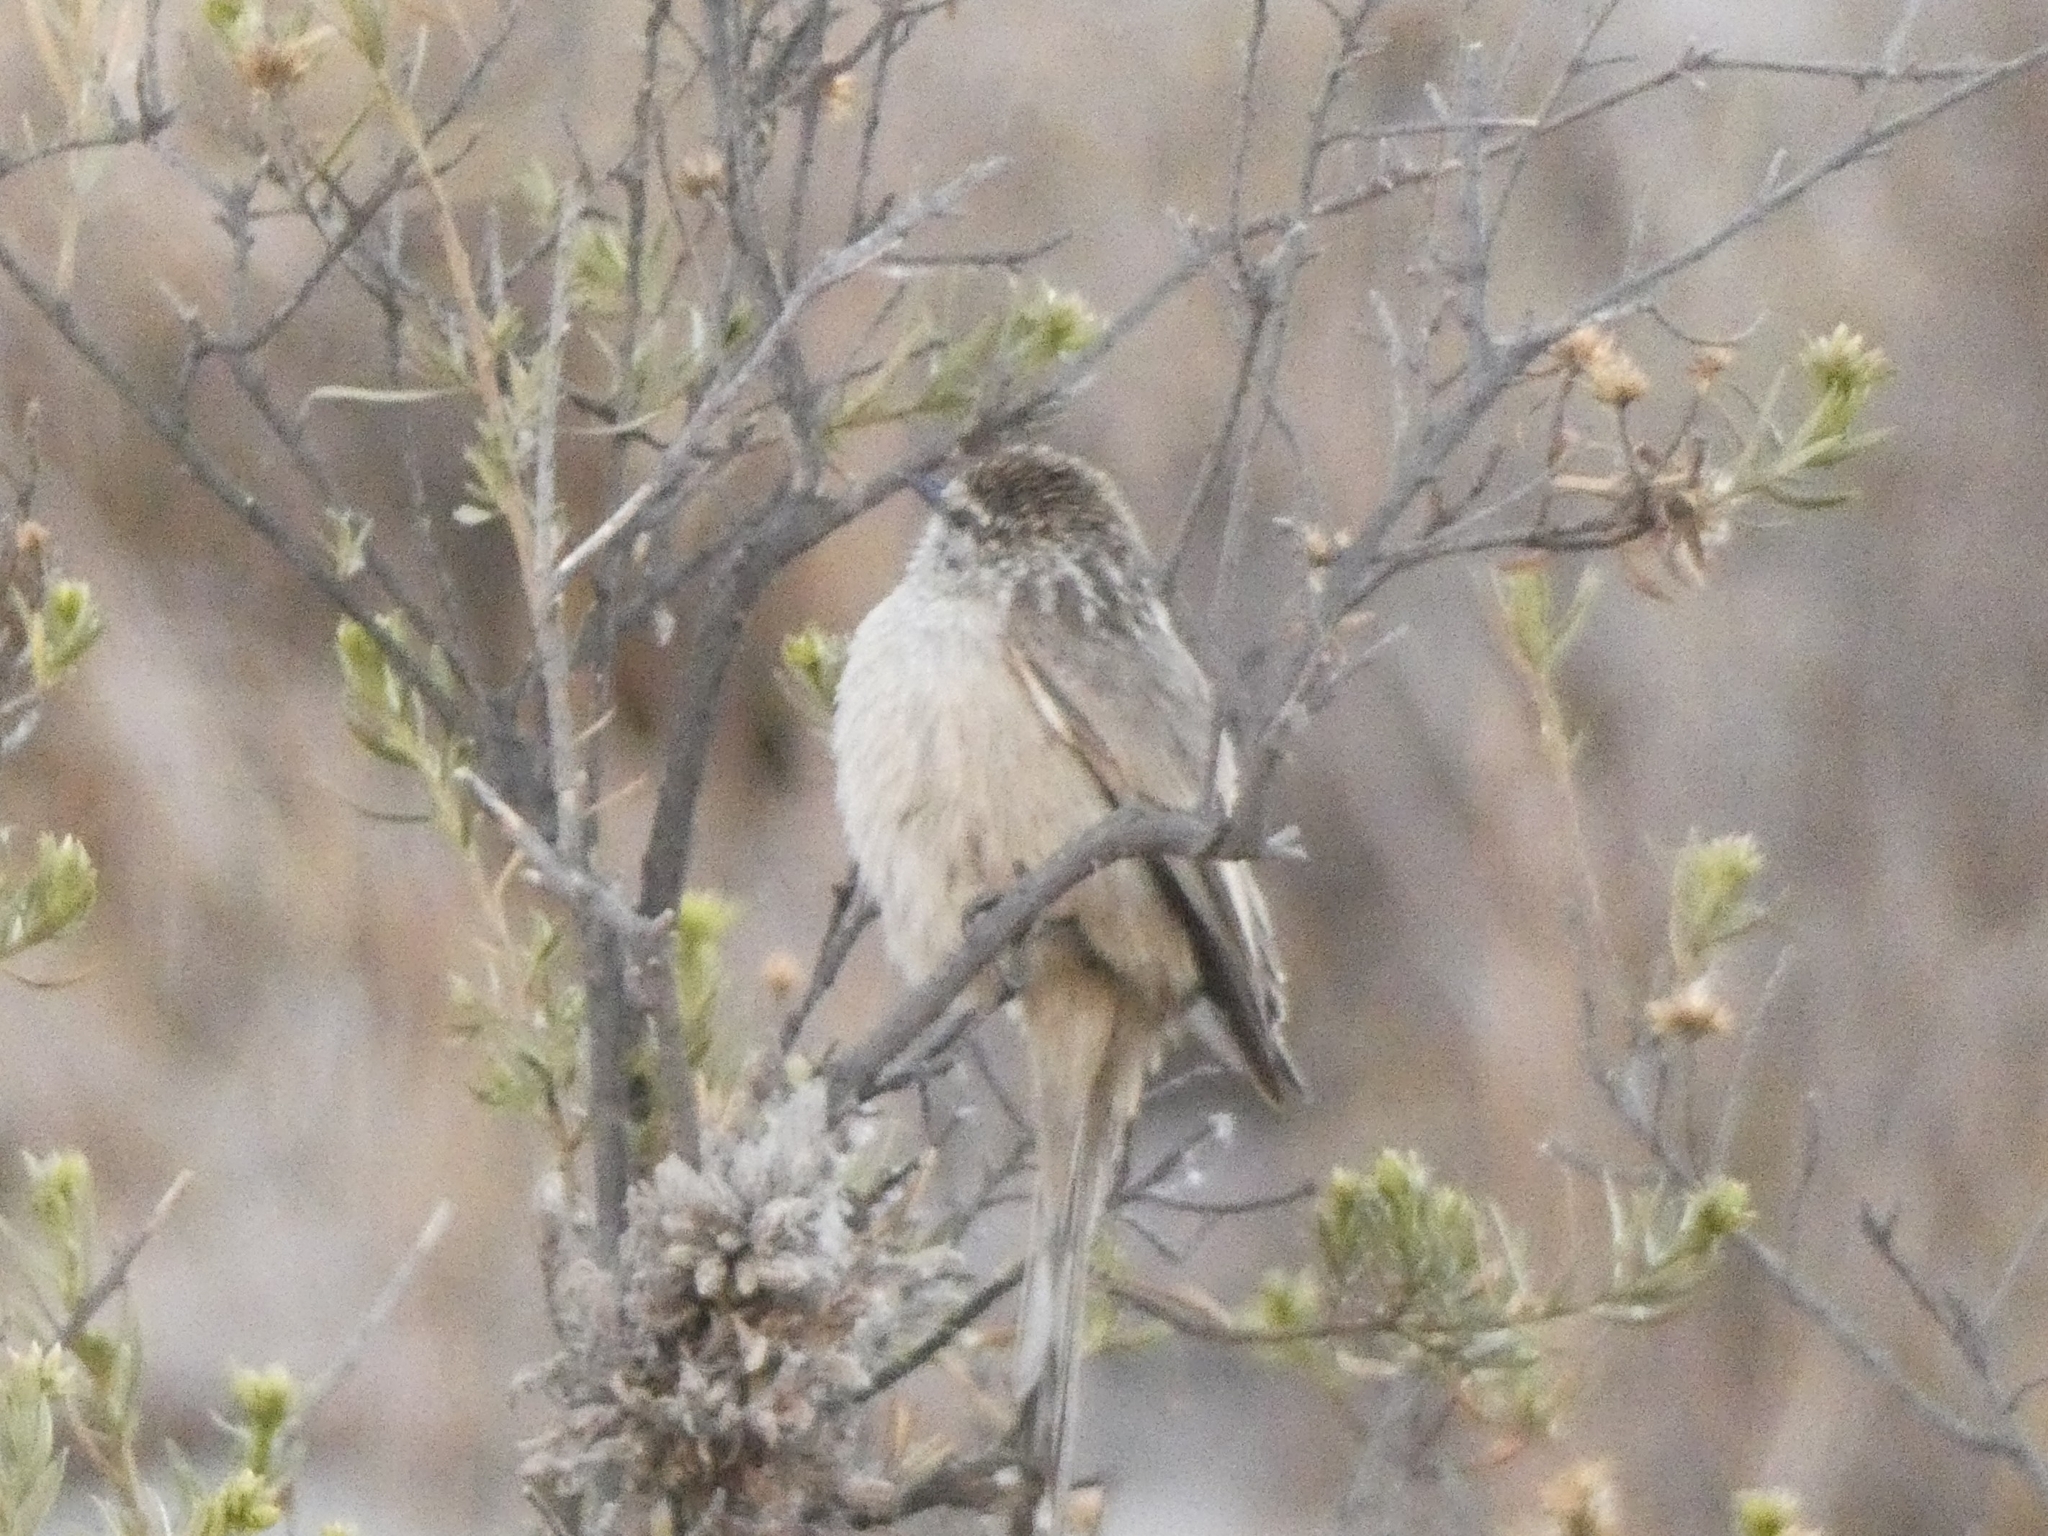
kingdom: Animalia
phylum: Chordata
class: Aves
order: Passeriformes
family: Furnariidae
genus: Leptasthenura
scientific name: Leptasthenura aegithaloides
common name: Plain-mantled tit-spinetail
